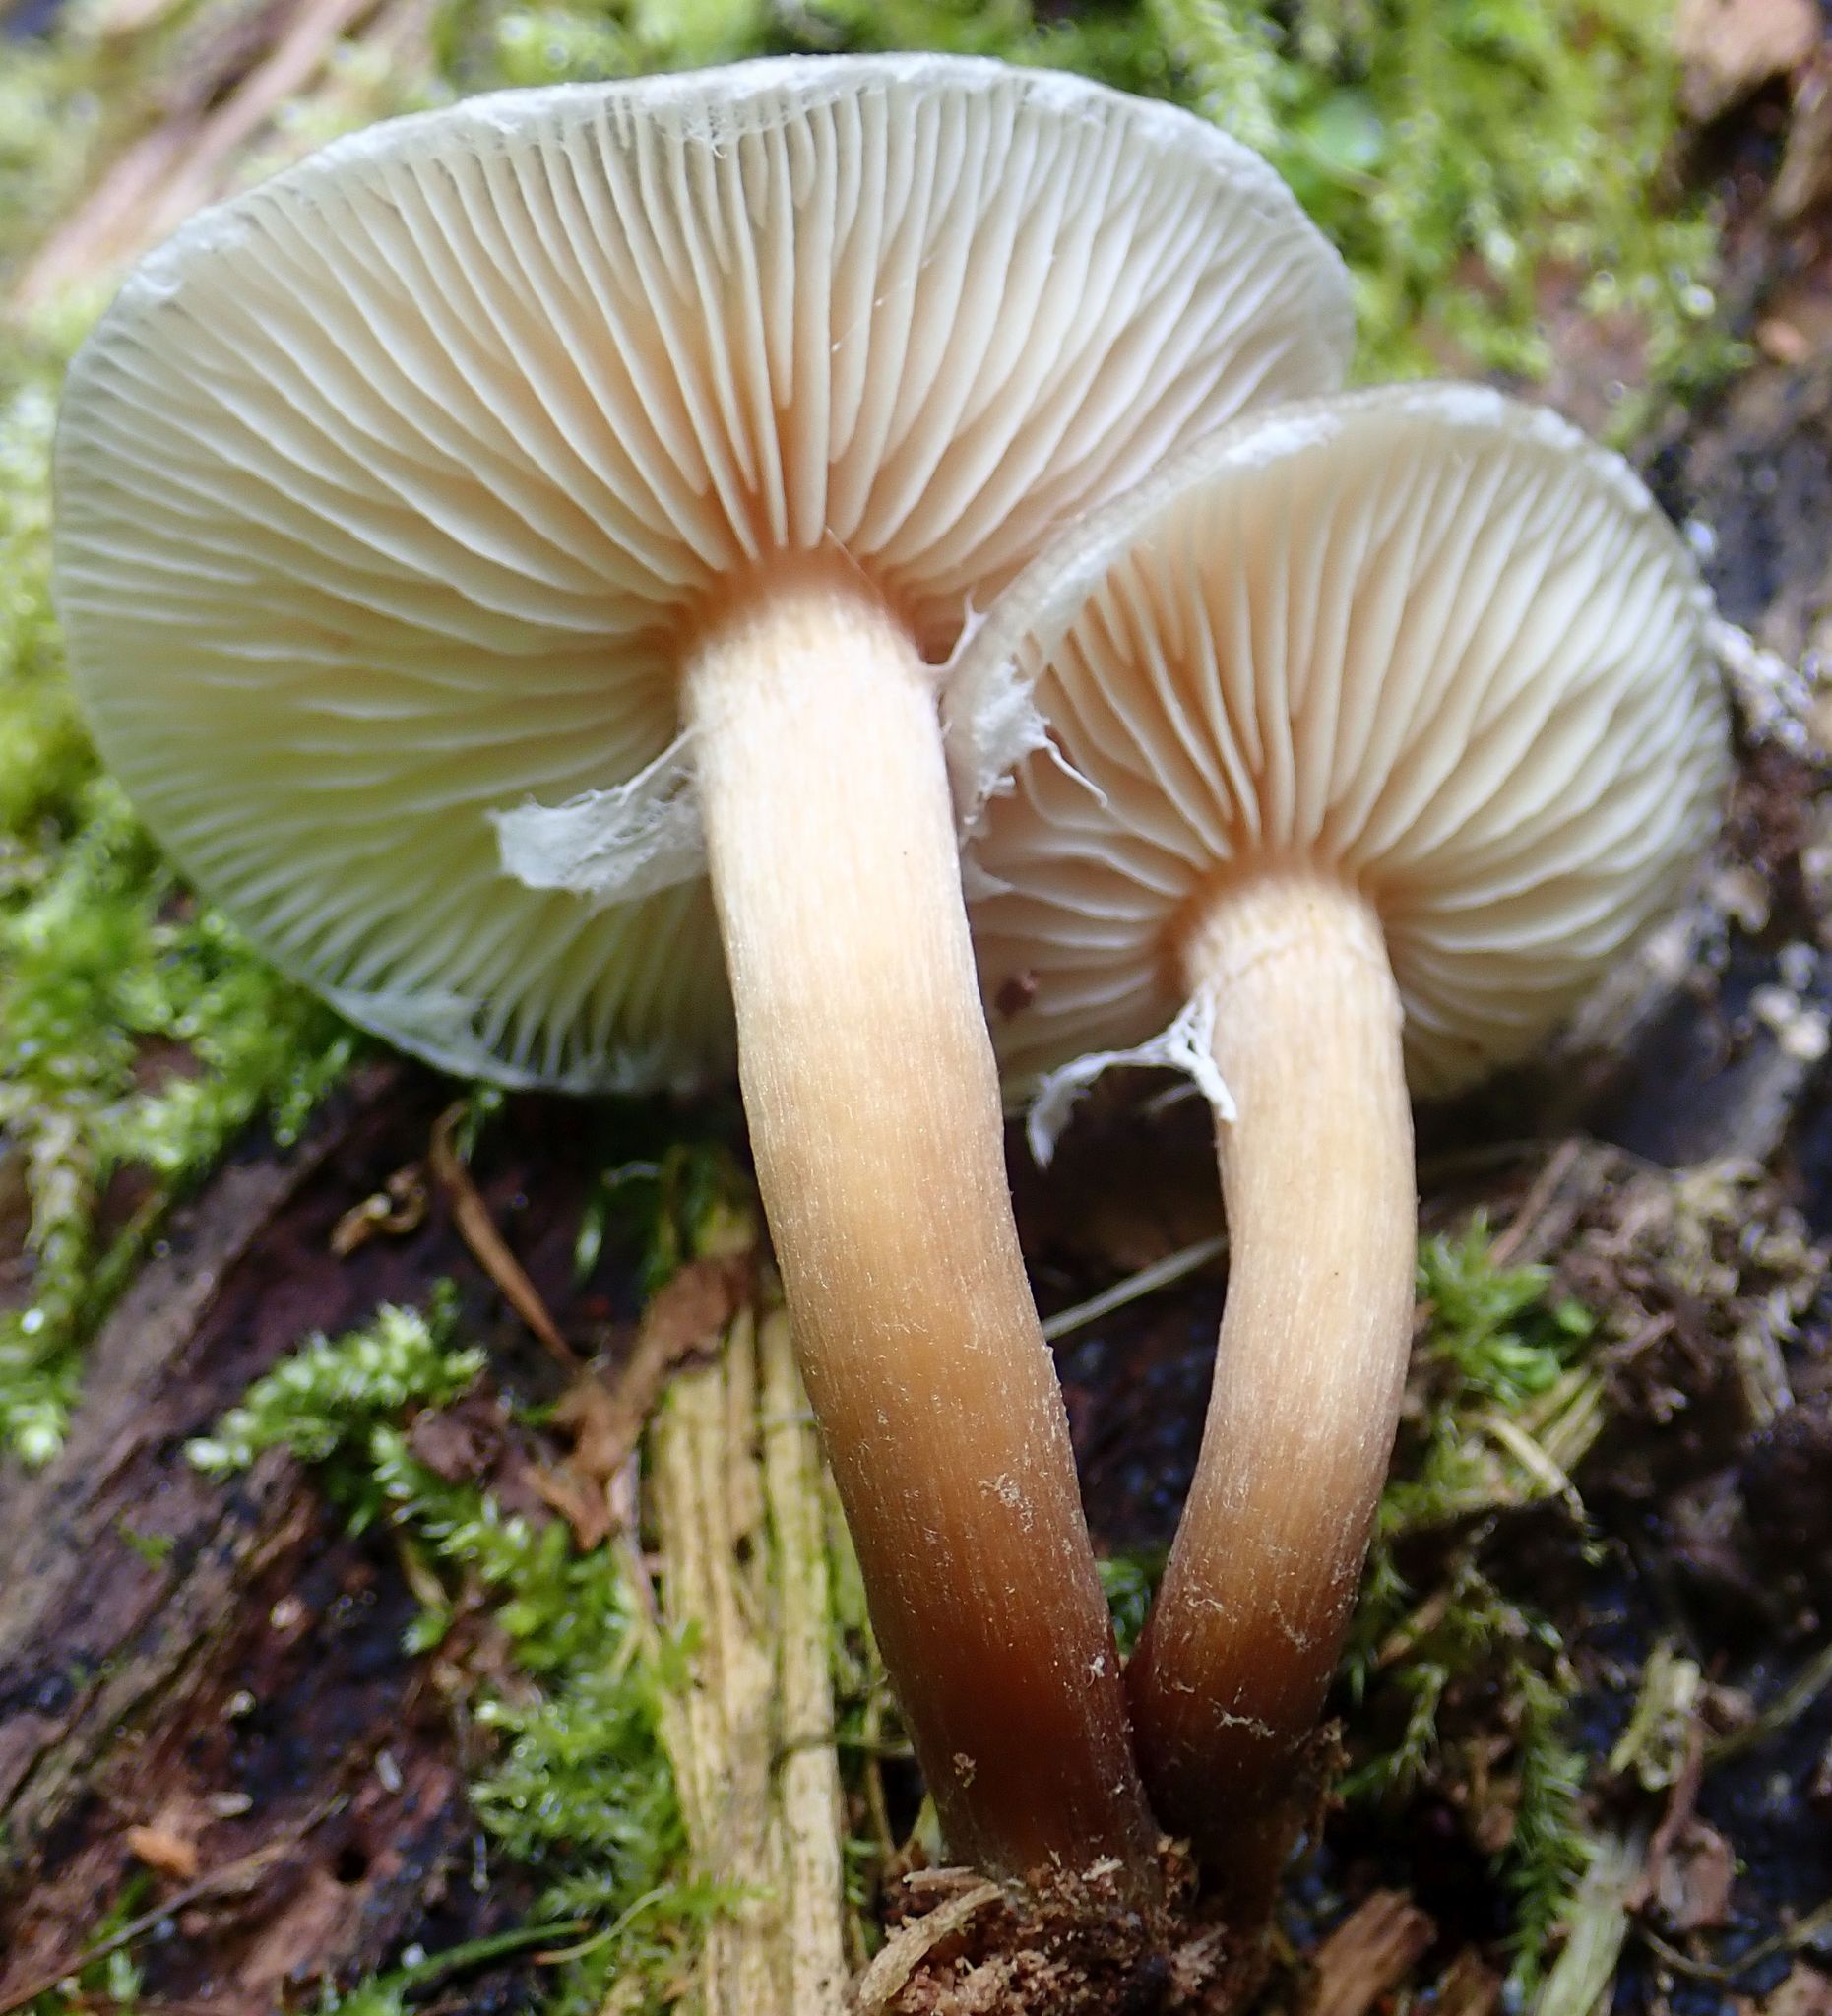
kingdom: Fungi
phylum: Basidiomycota
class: Agaricomycetes
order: Agaricales
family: Physalacriaceae
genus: Armillaria
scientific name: Armillaria limonea
